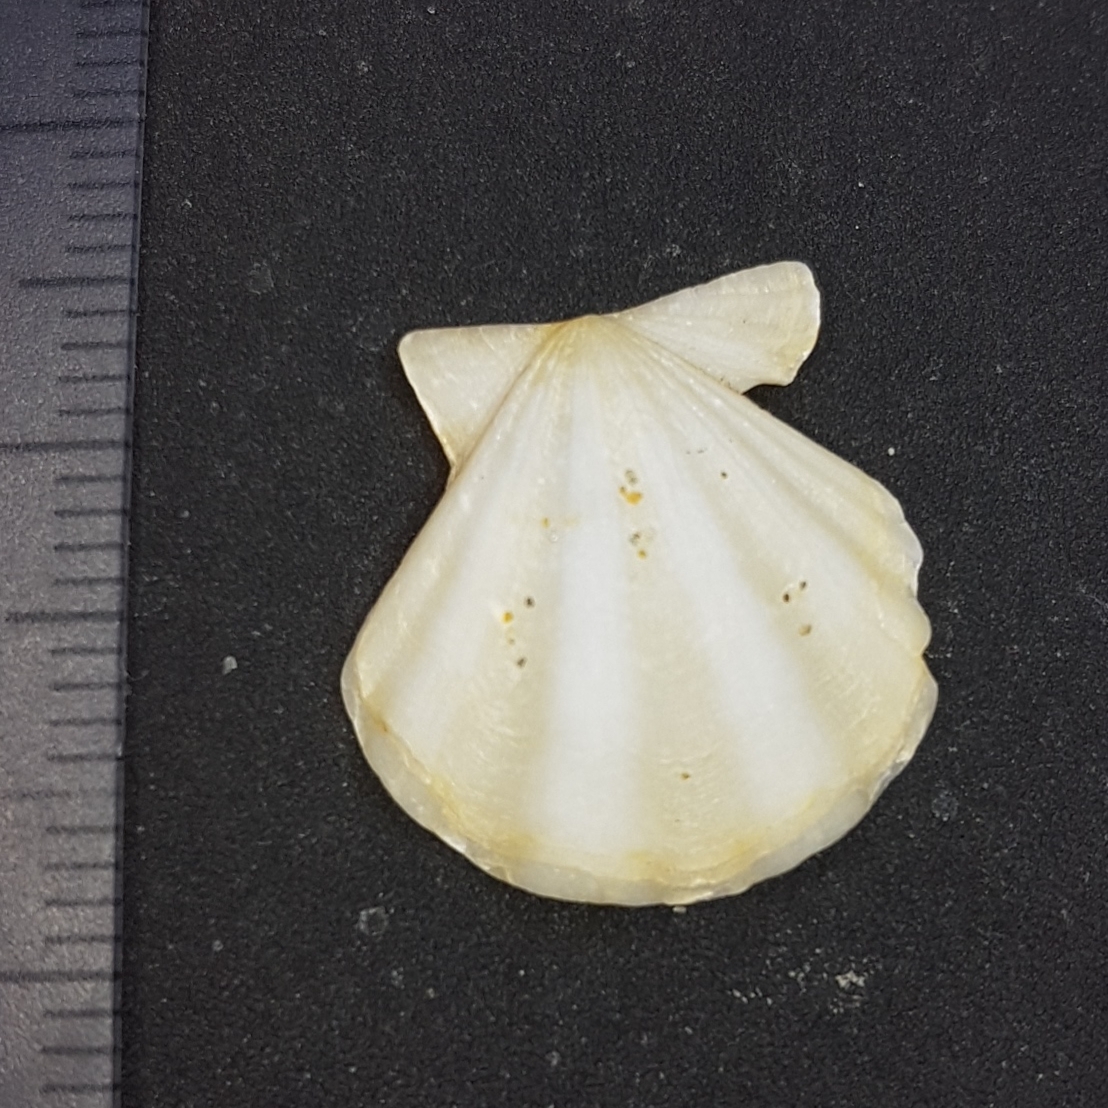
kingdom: Animalia
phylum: Mollusca
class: Bivalvia
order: Pectinida
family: Pectinidae
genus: Flexopecten
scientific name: Flexopecten flexuosus
